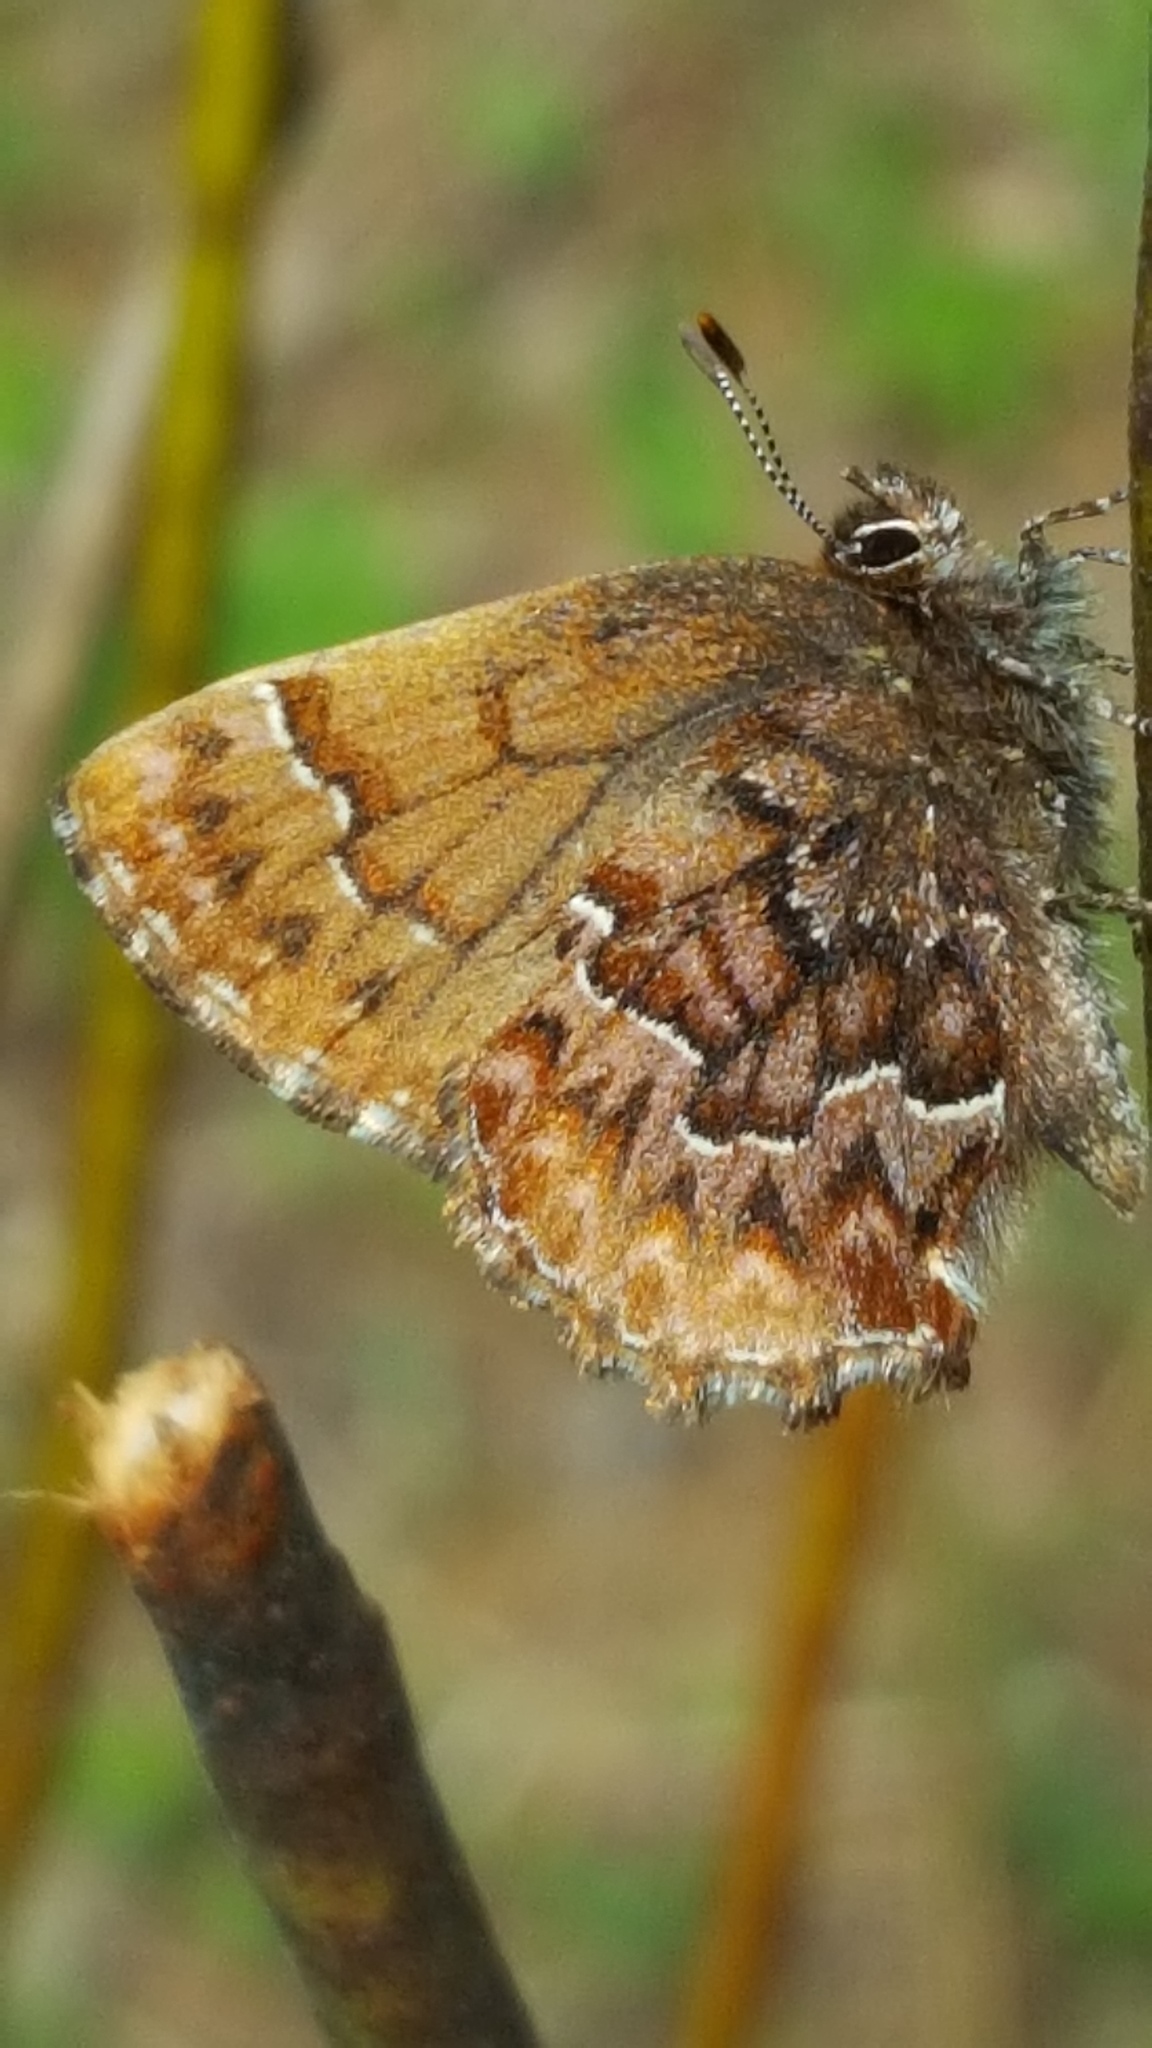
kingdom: Animalia
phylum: Arthropoda
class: Insecta
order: Lepidoptera
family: Lycaenidae
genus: Incisalia
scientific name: Incisalia eryphon
